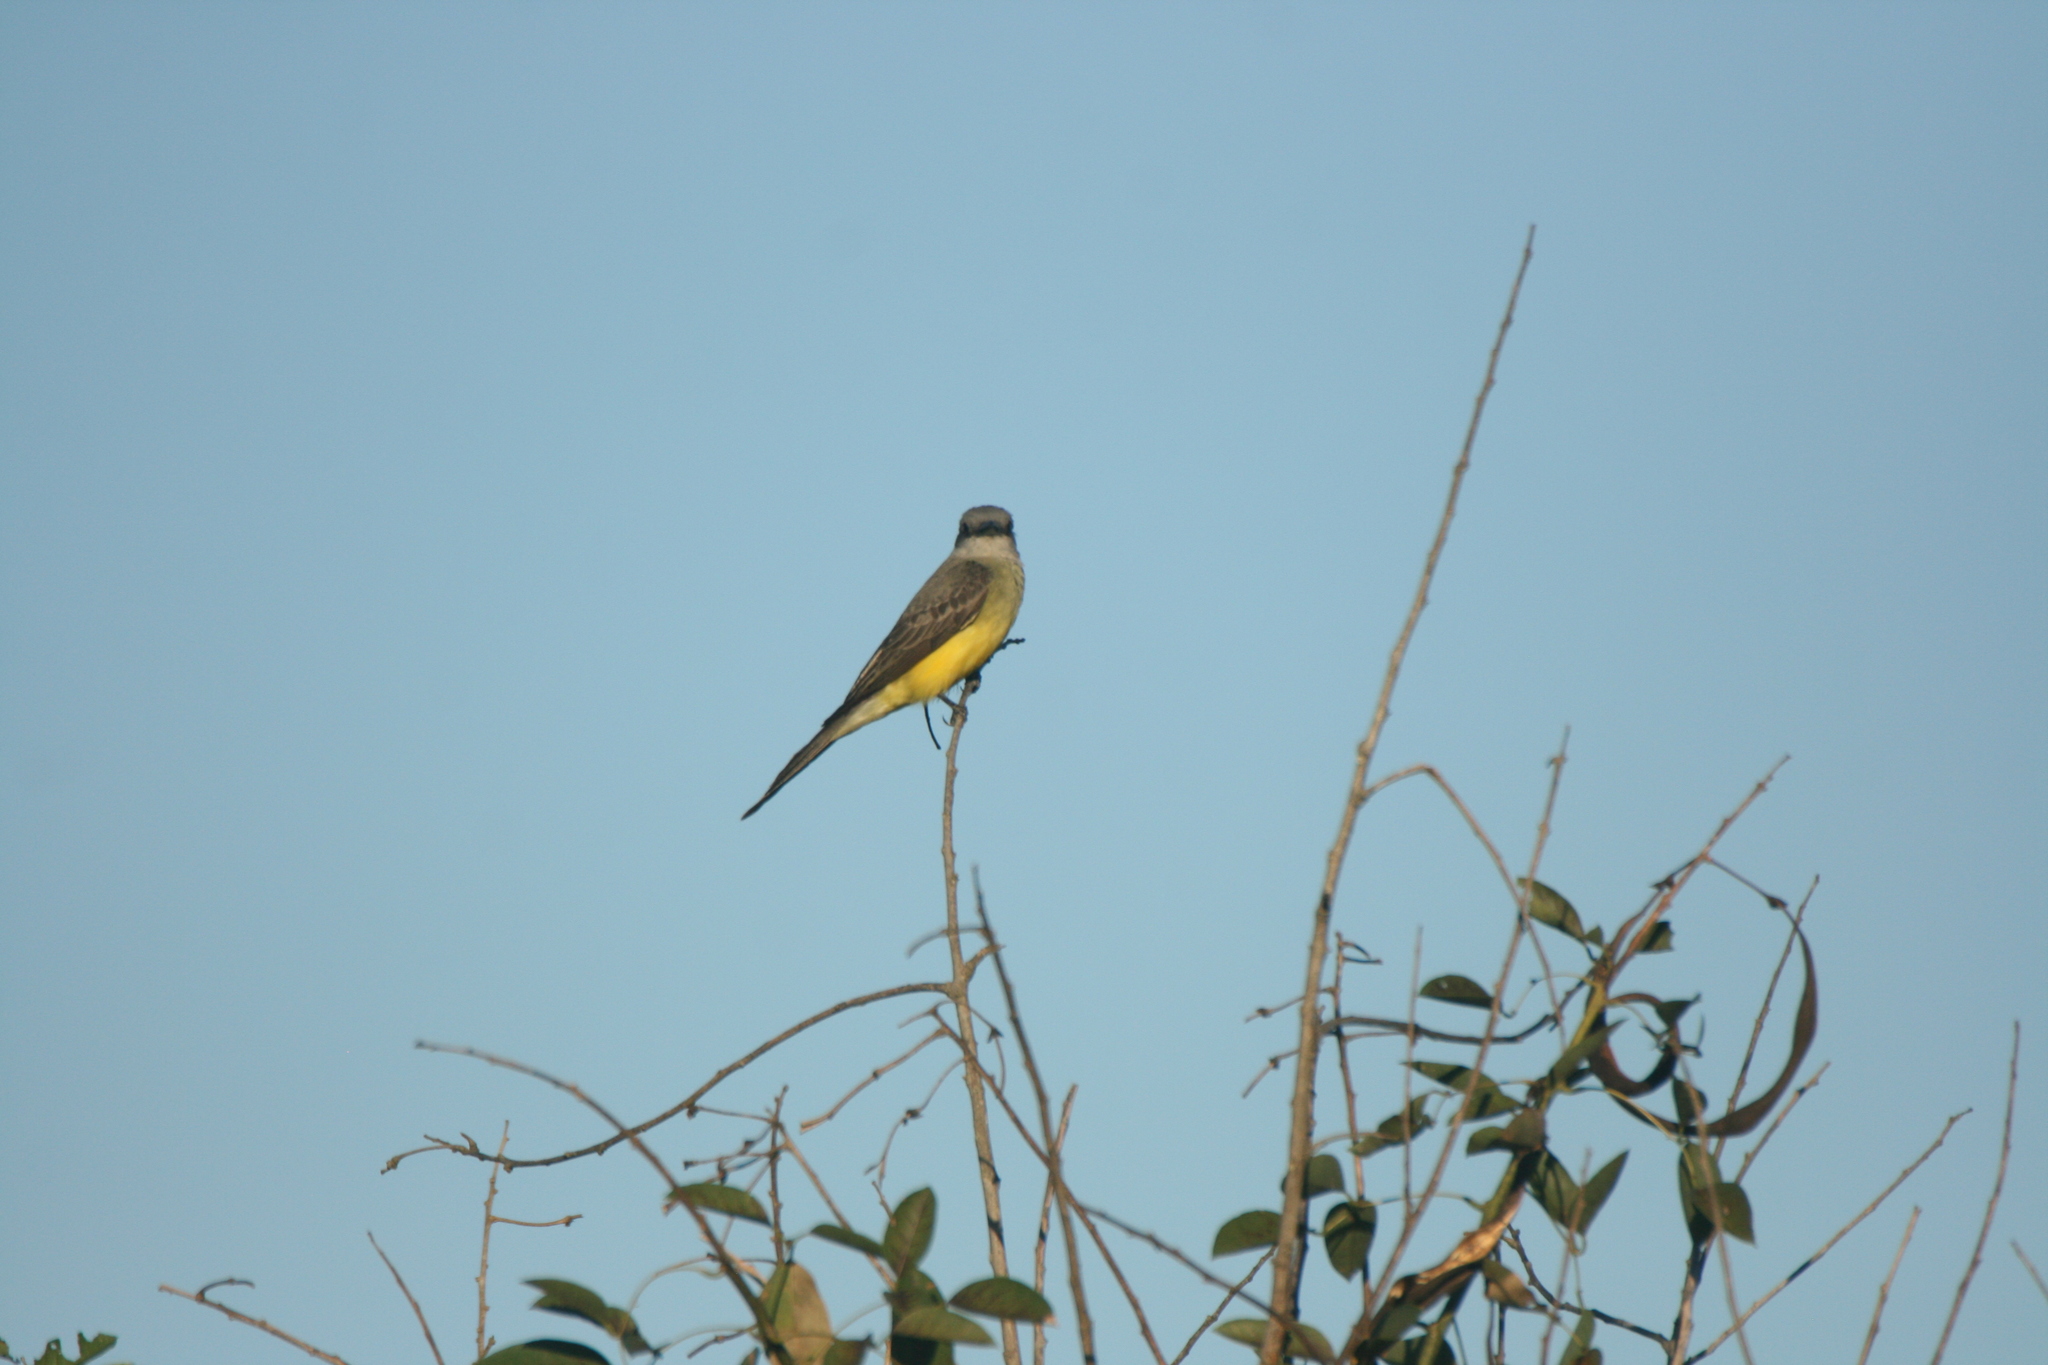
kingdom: Animalia
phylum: Chordata
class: Aves
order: Passeriformes
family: Tyrannidae
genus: Tyrannus
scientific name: Tyrannus melancholicus
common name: Tropical kingbird
